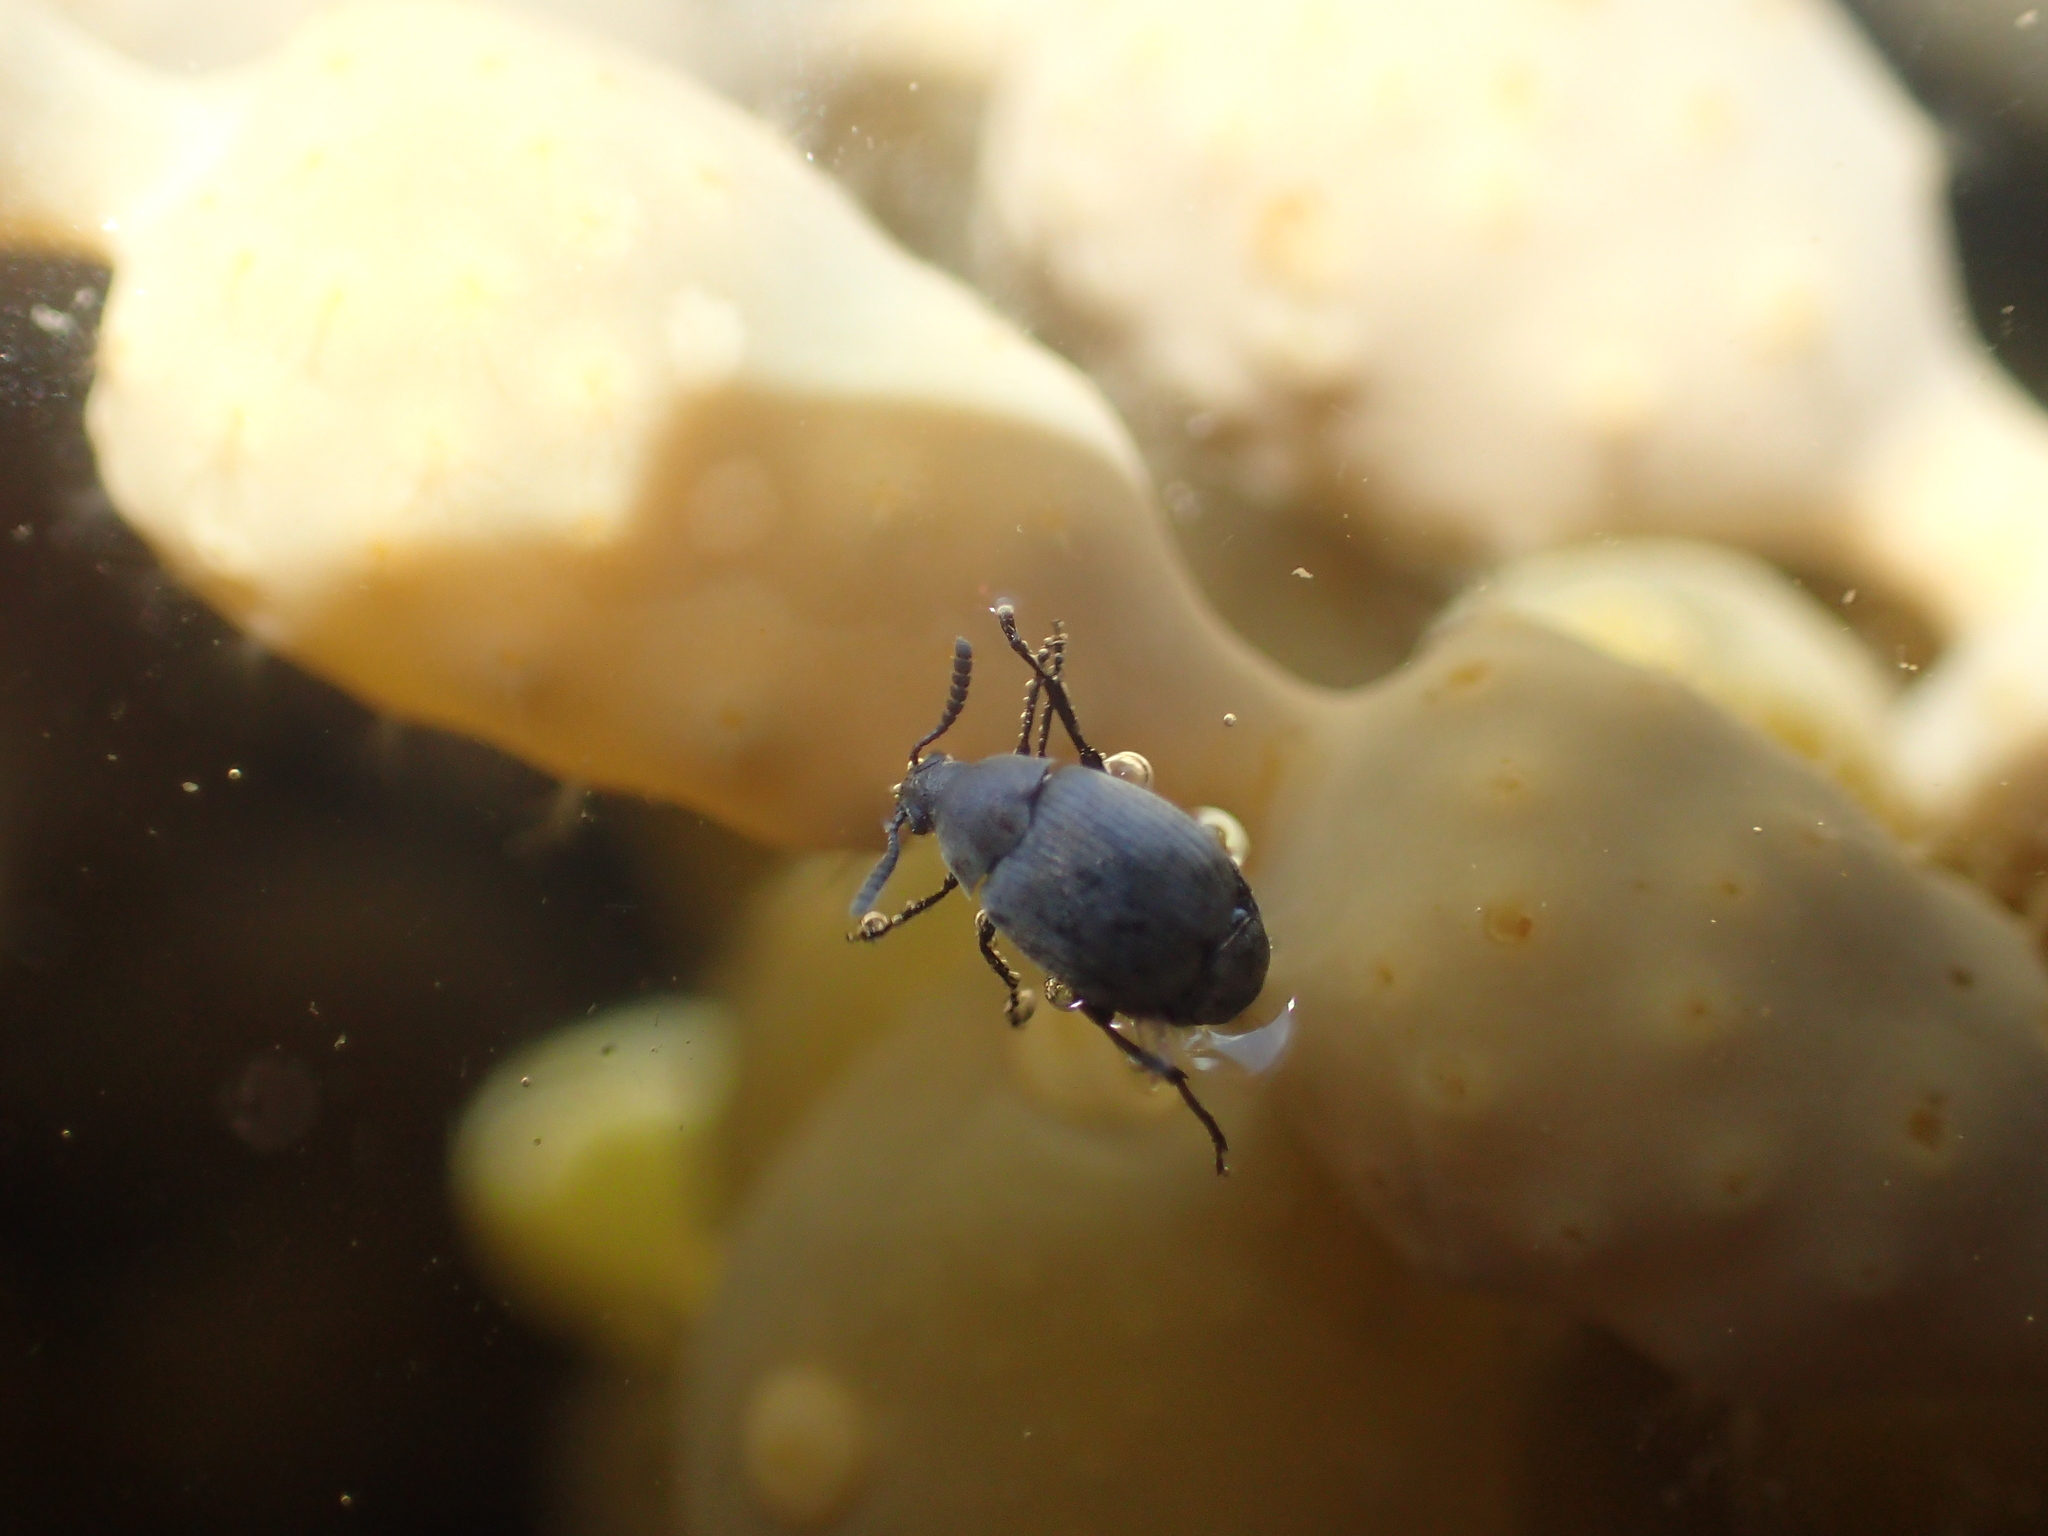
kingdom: Animalia
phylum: Arthropoda
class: Insecta
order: Coleoptera
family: Chrysomelidae
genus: Bruchidius
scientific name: Bruchidius villosus
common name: Scotch broom bruchid
